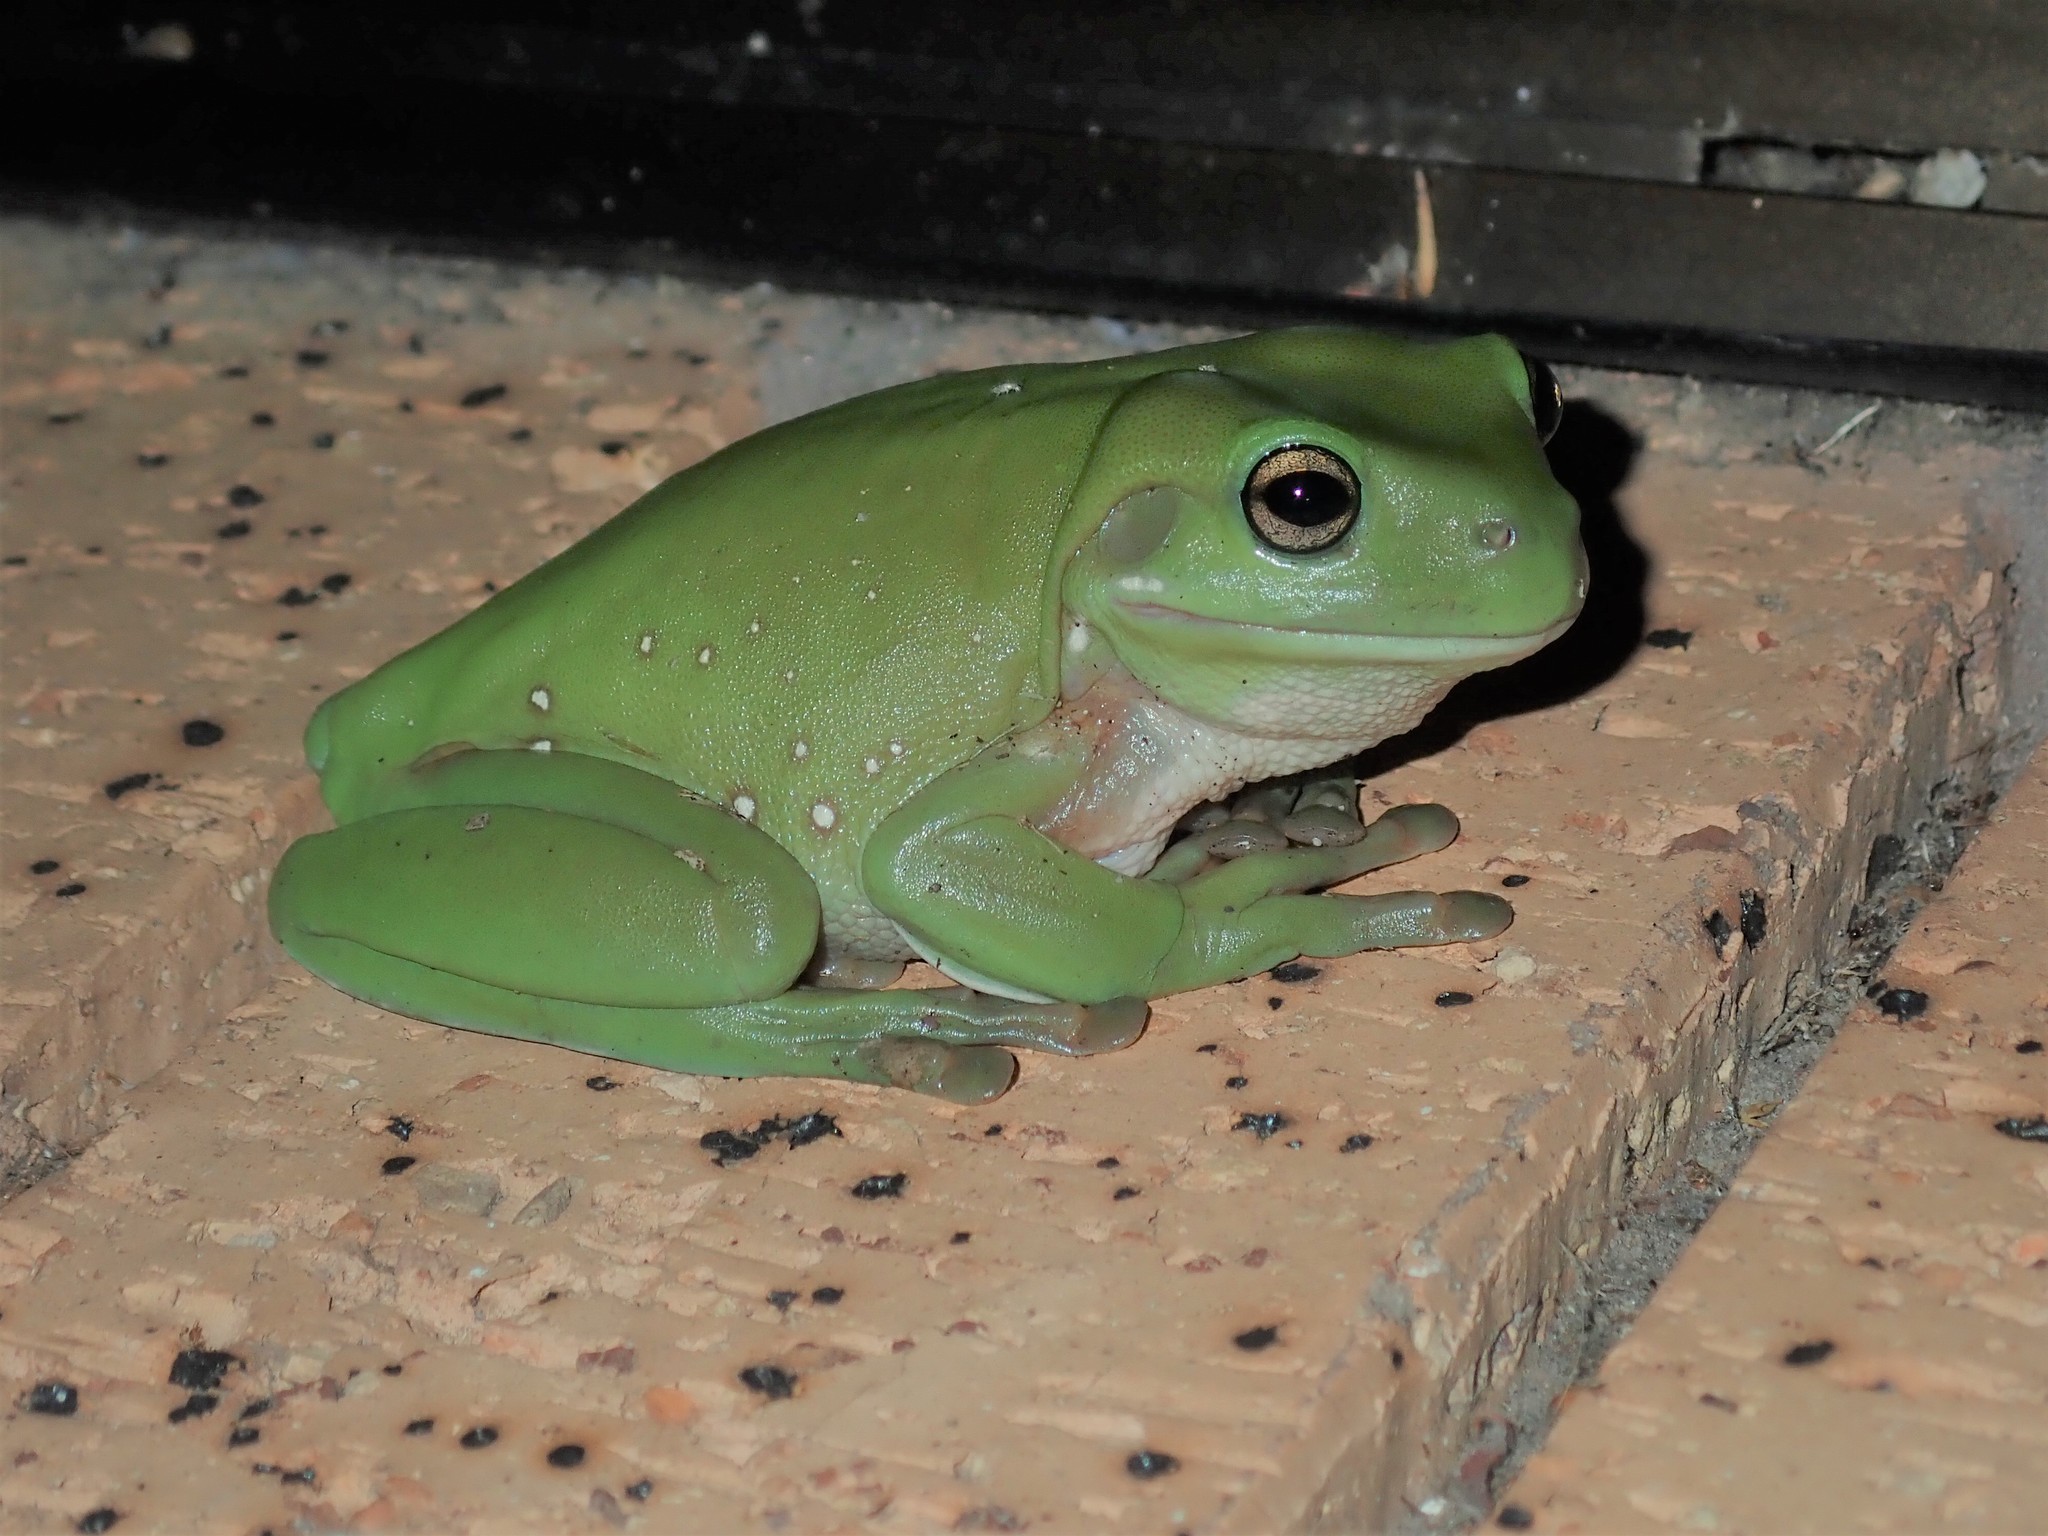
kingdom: Animalia
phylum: Chordata
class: Amphibia
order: Anura
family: Pelodryadidae
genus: Ranoidea
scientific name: Ranoidea caerulea
